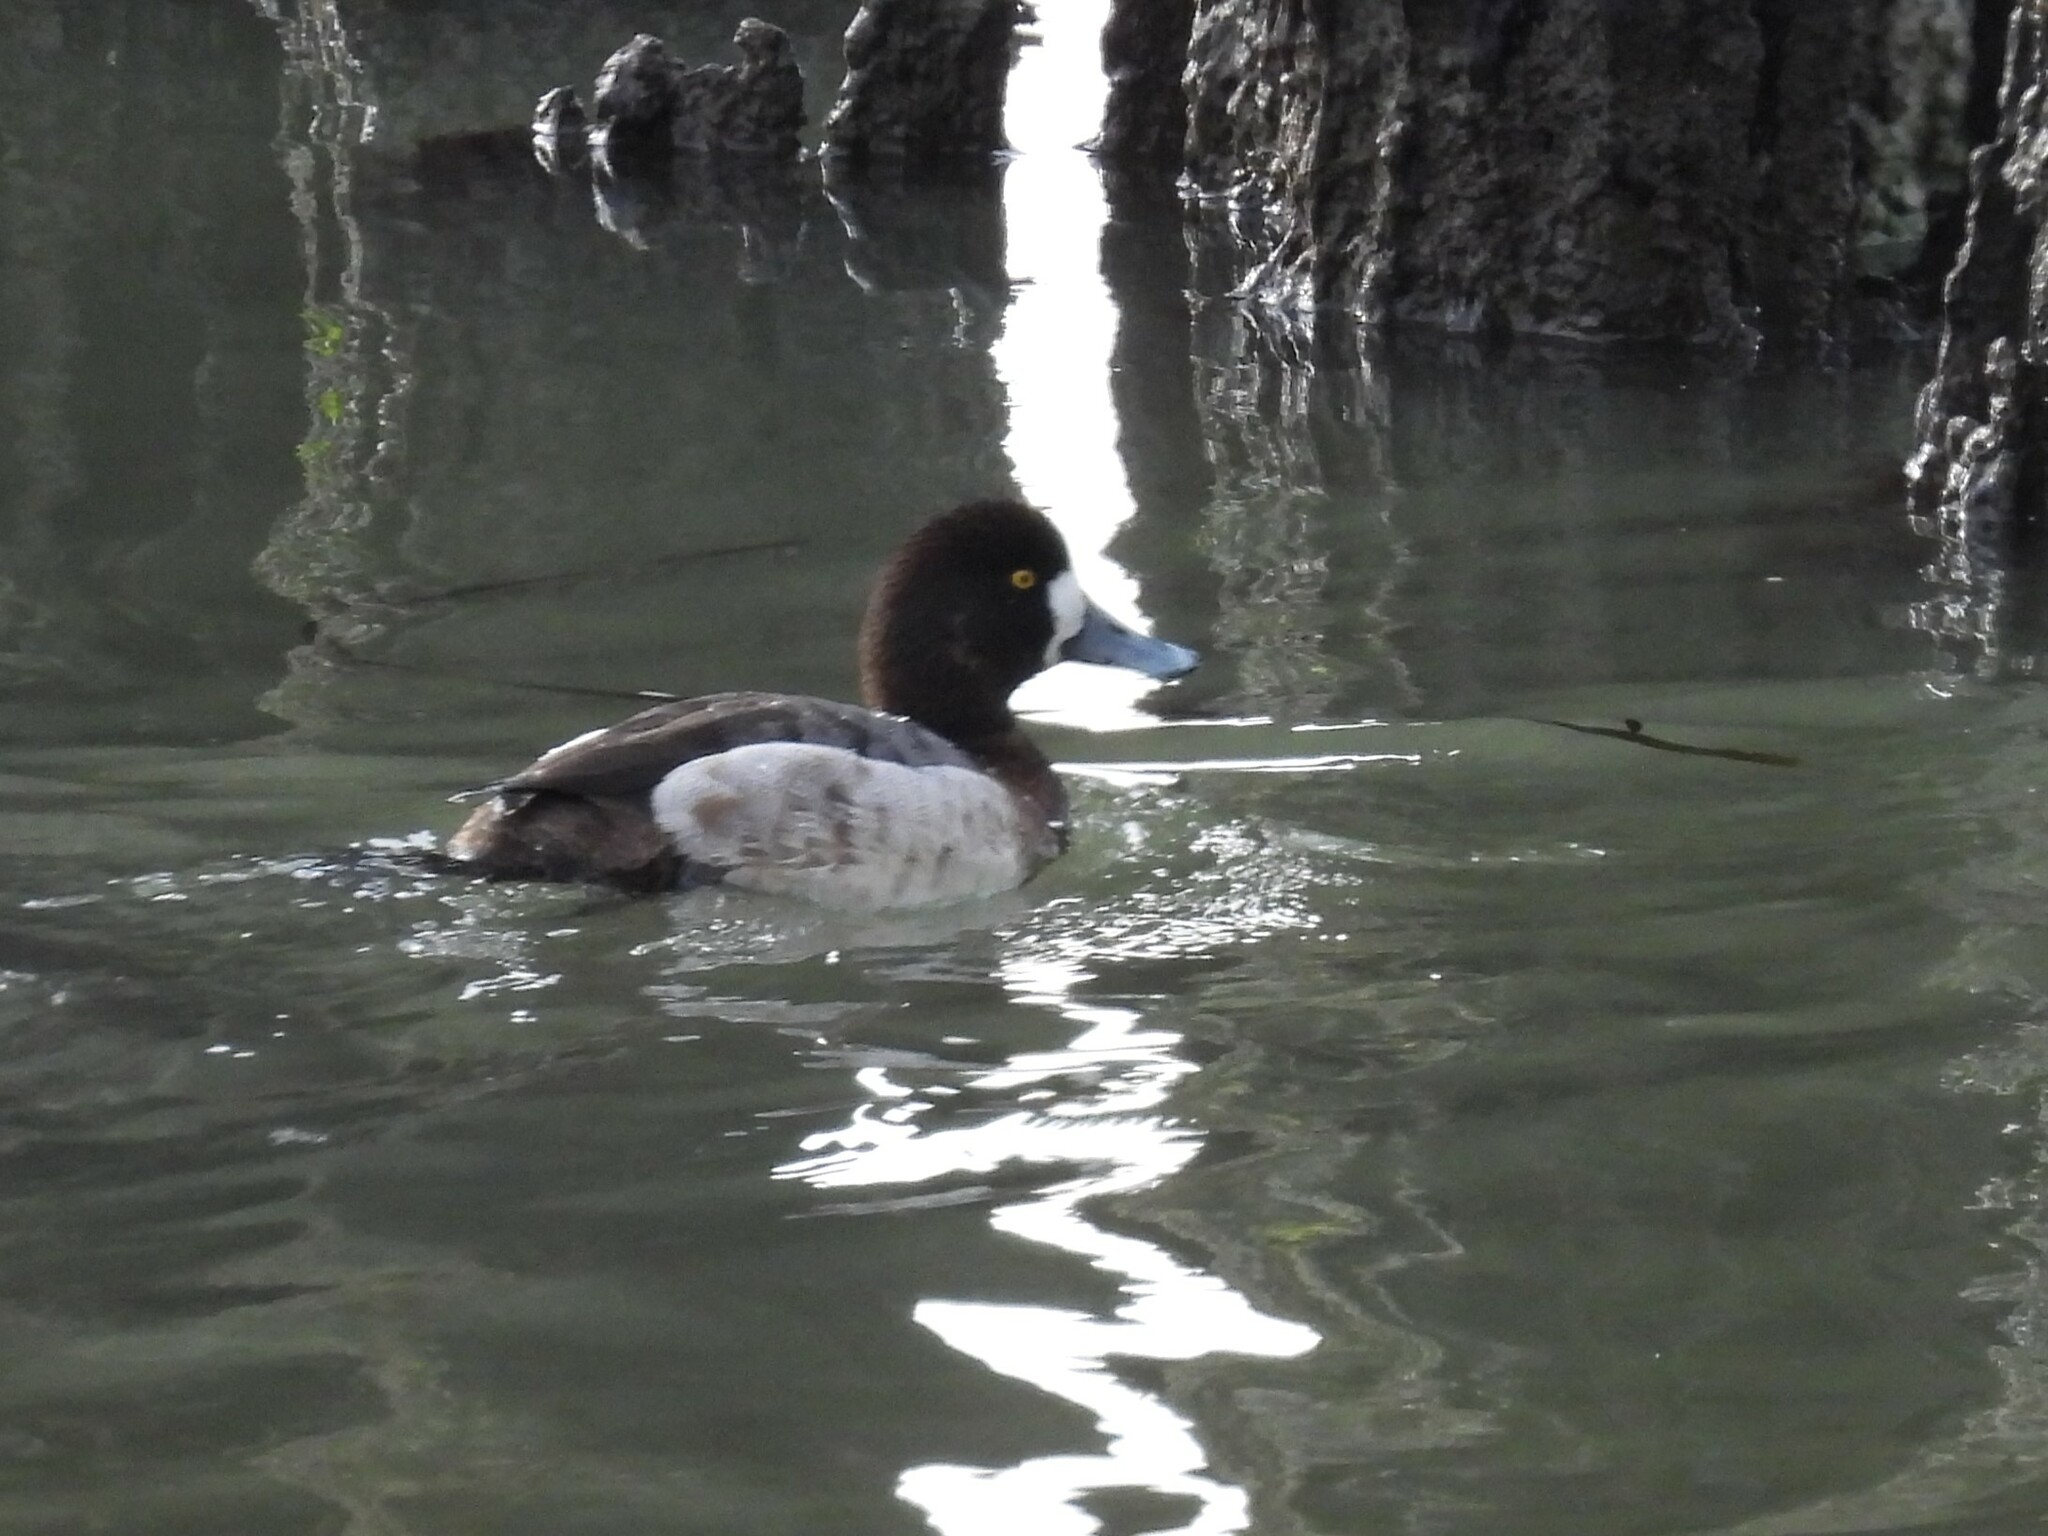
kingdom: Animalia
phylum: Chordata
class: Aves
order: Anseriformes
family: Anatidae
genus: Aythya
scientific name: Aythya marila
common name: Greater scaup
